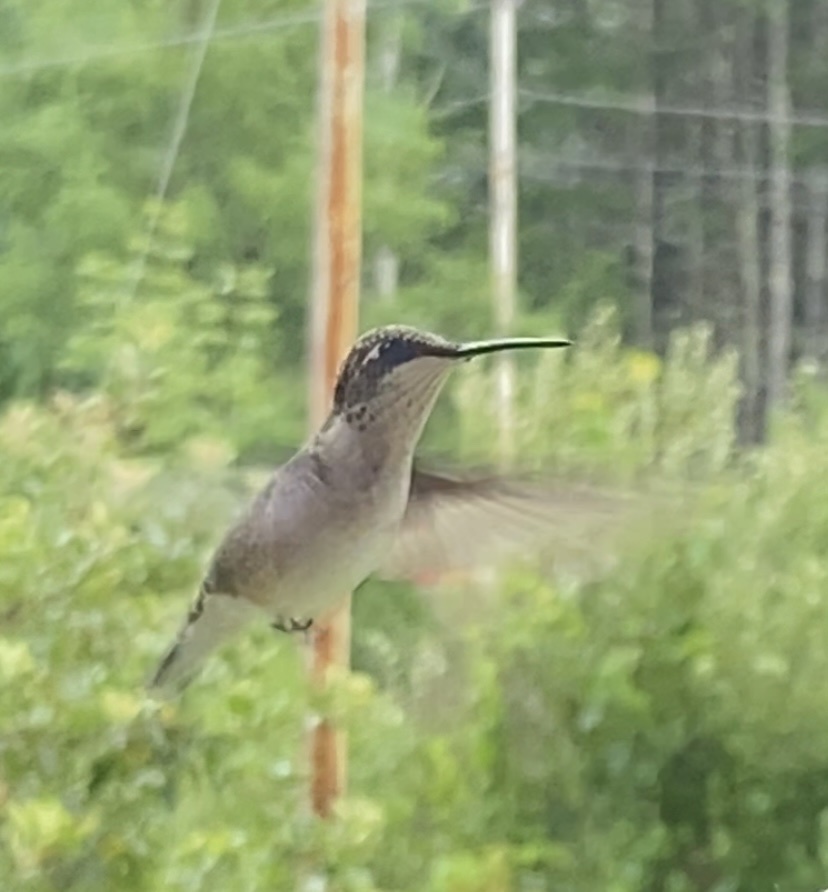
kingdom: Animalia
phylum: Chordata
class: Aves
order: Apodiformes
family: Trochilidae
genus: Archilochus
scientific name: Archilochus colubris
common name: Ruby-throated hummingbird
